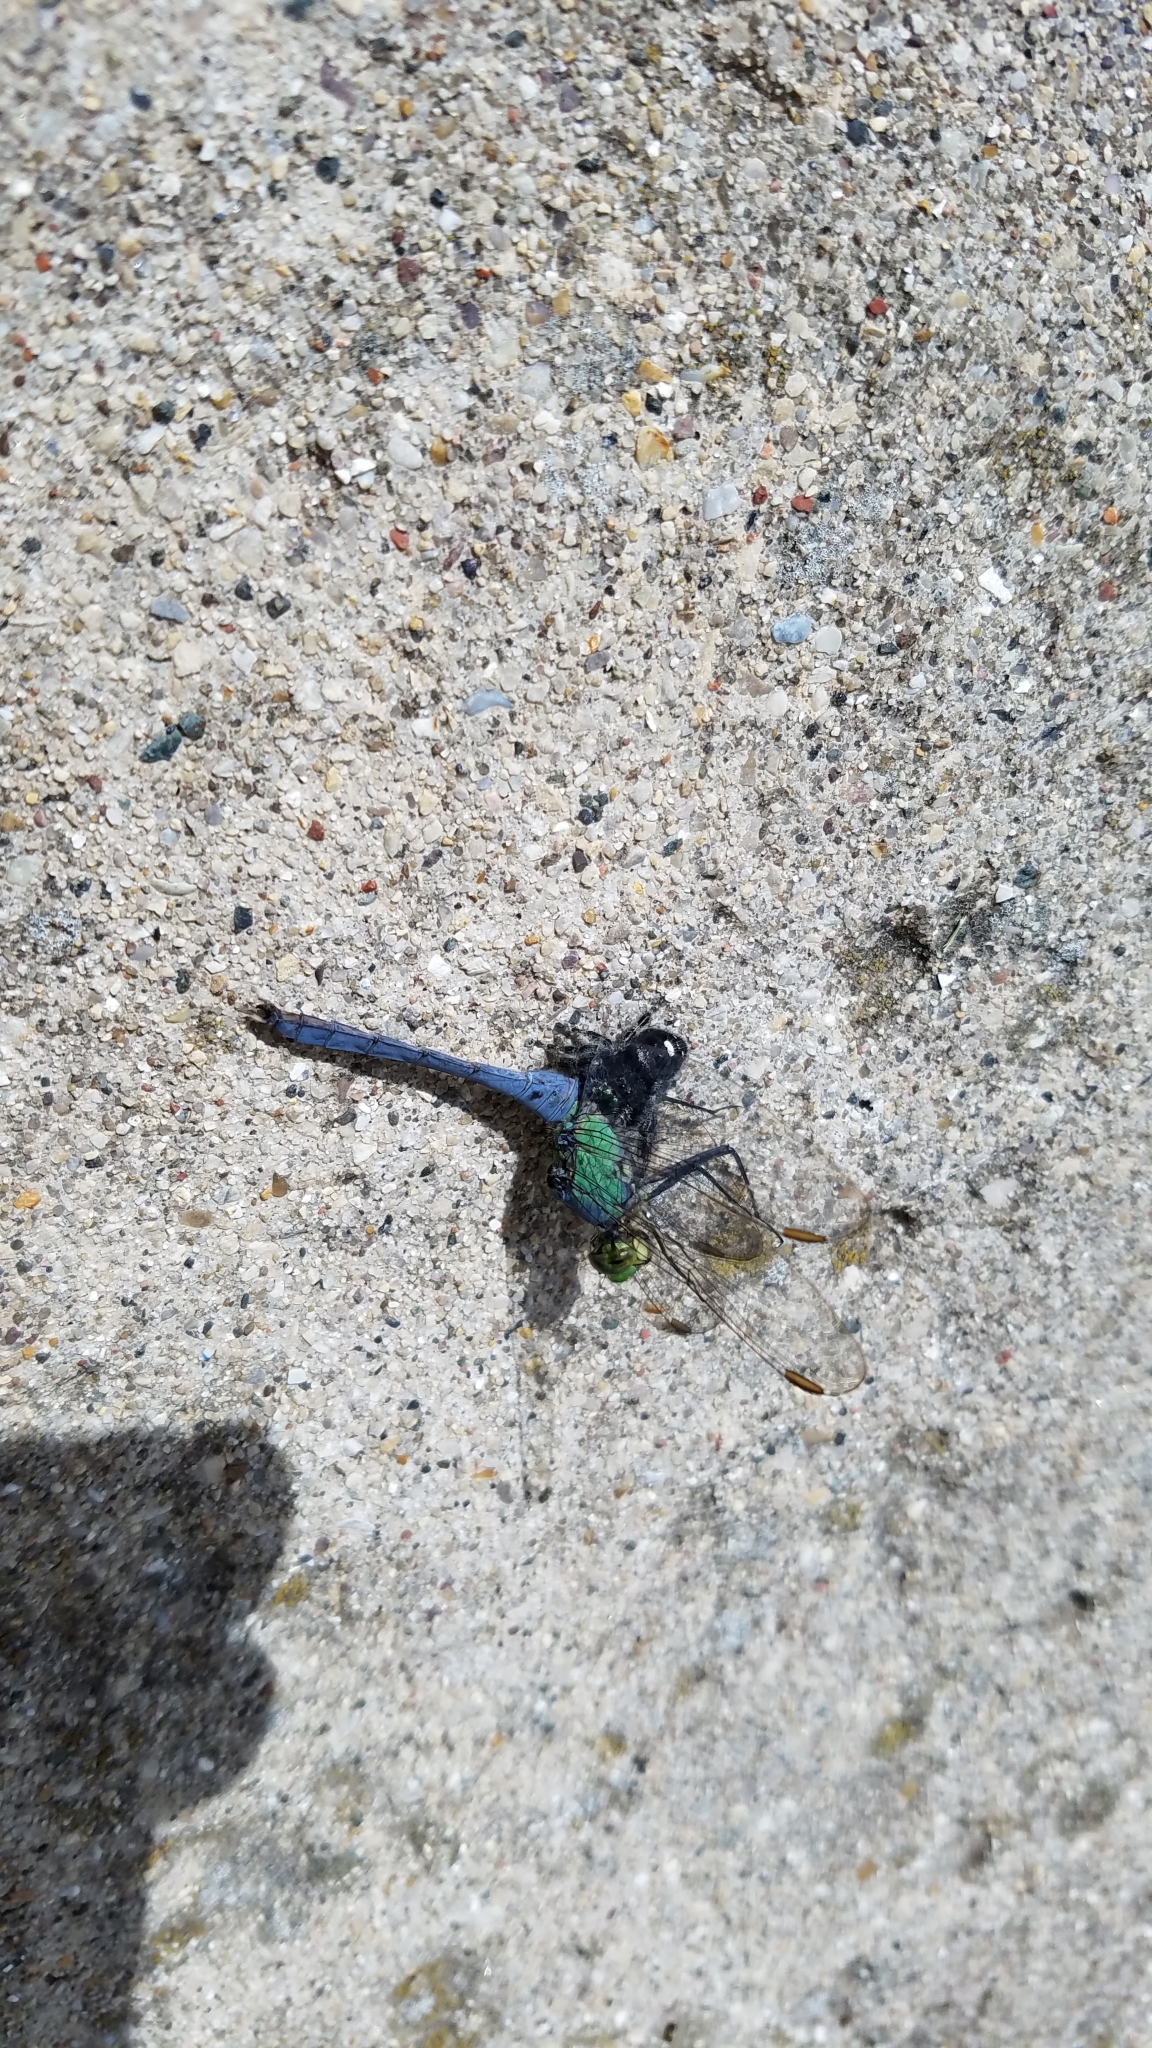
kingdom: Animalia
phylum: Arthropoda
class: Arachnida
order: Araneae
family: Salticidae
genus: Phidippus
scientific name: Phidippus audax
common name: Bold jumper
